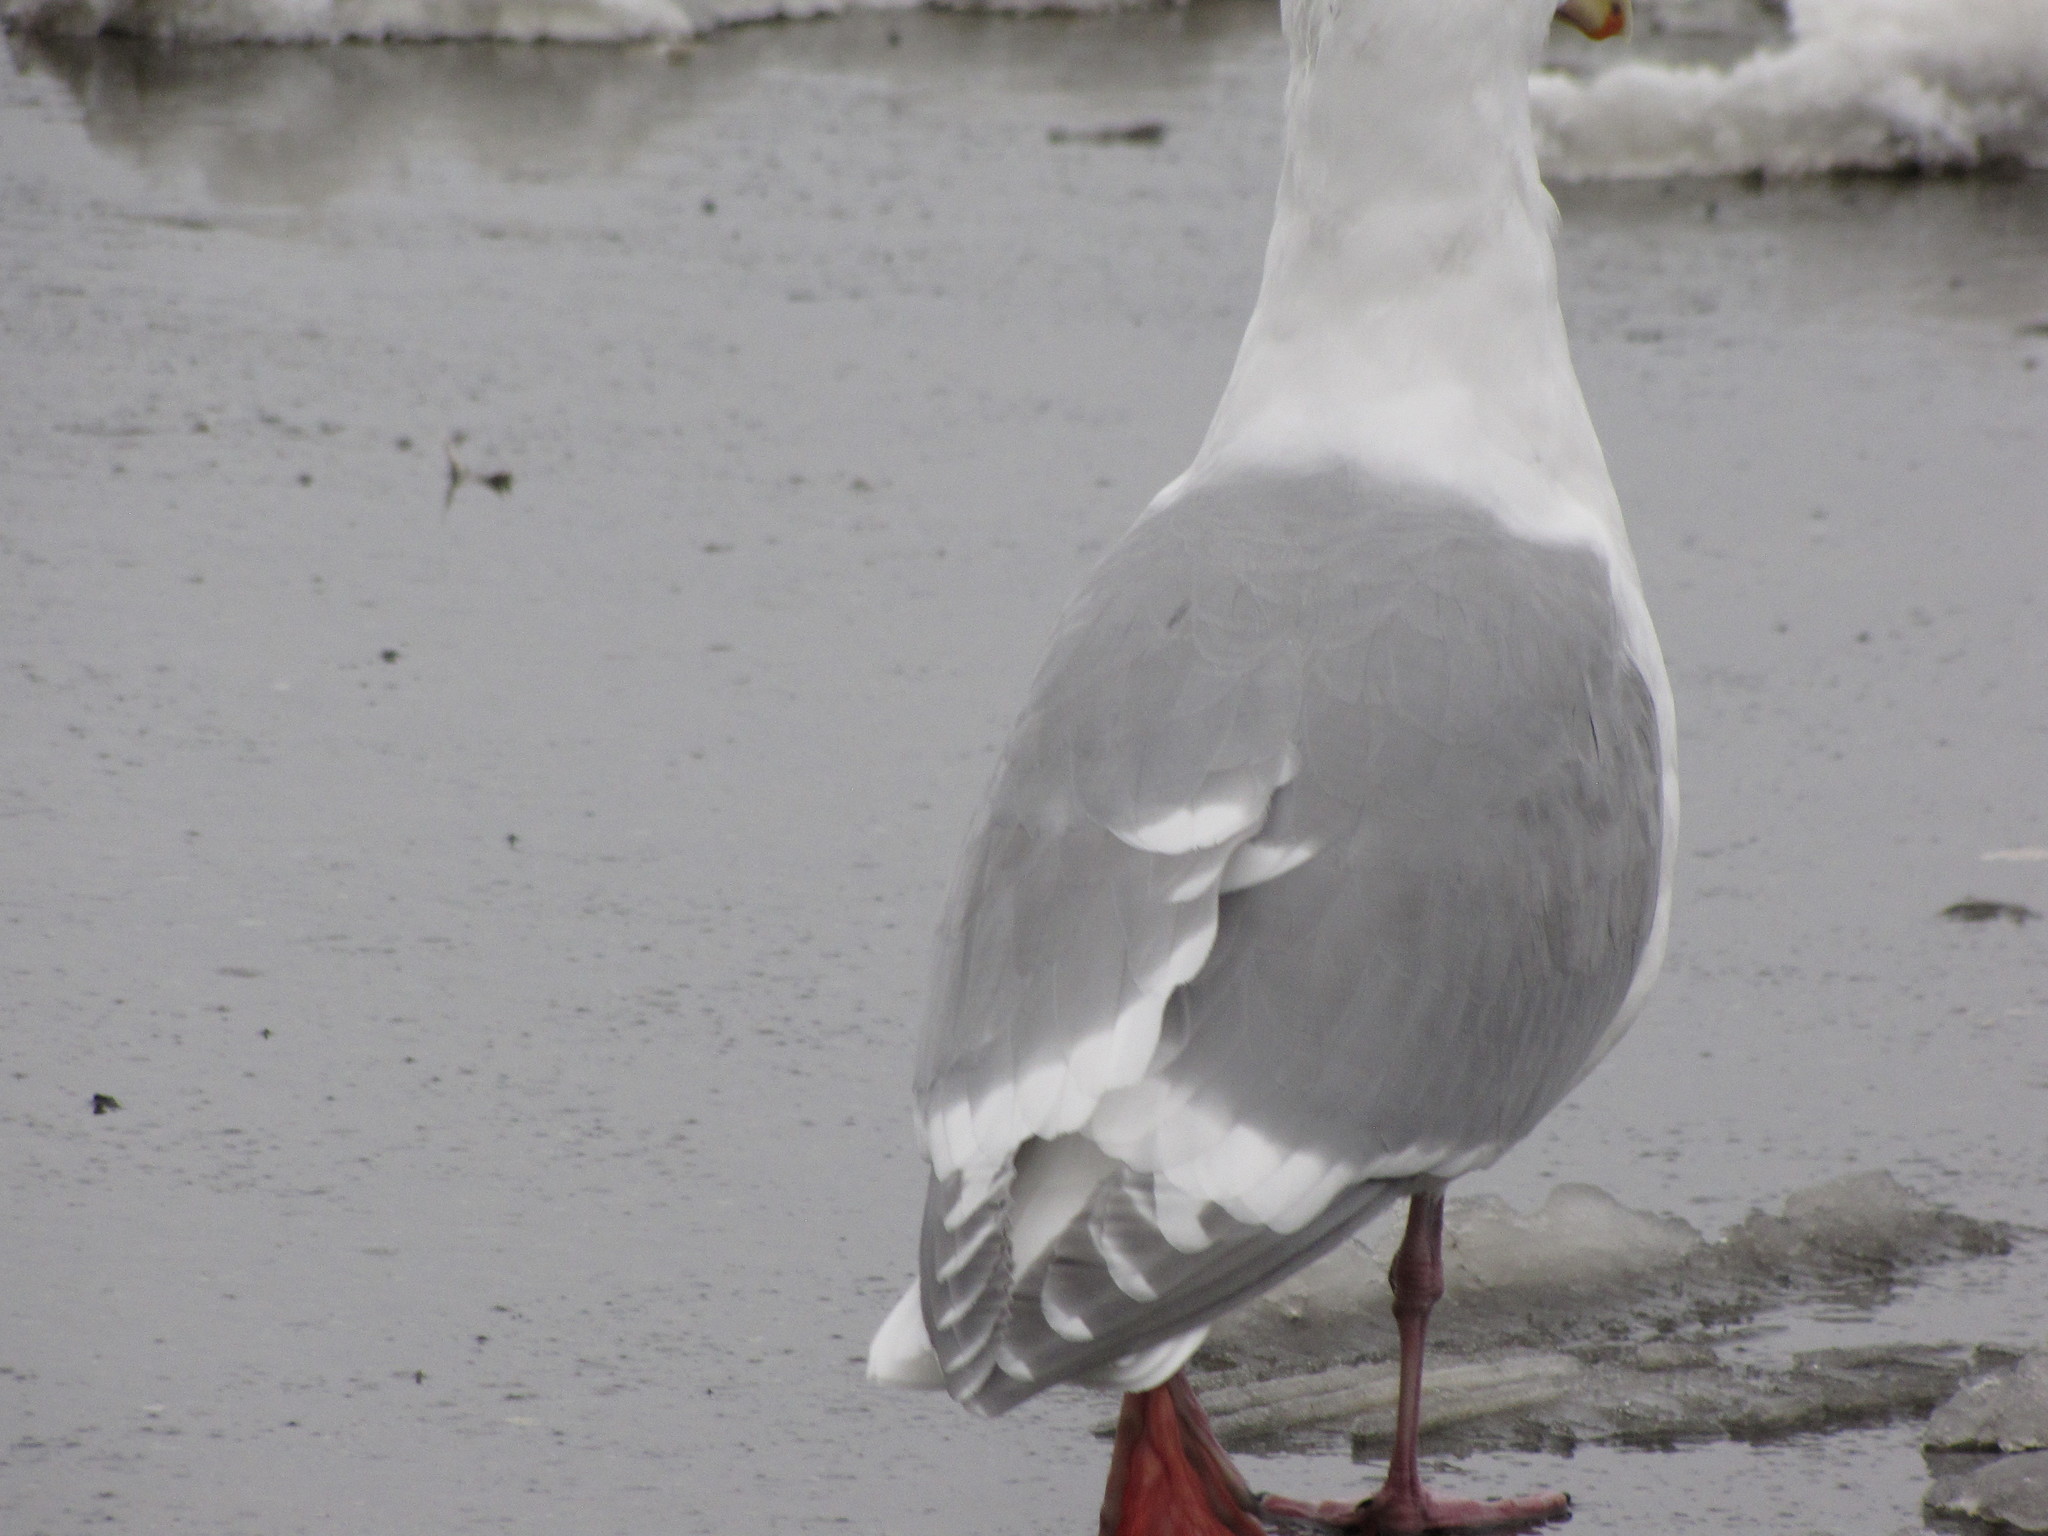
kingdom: Animalia
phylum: Chordata
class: Aves
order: Charadriiformes
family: Laridae
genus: Larus
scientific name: Larus
